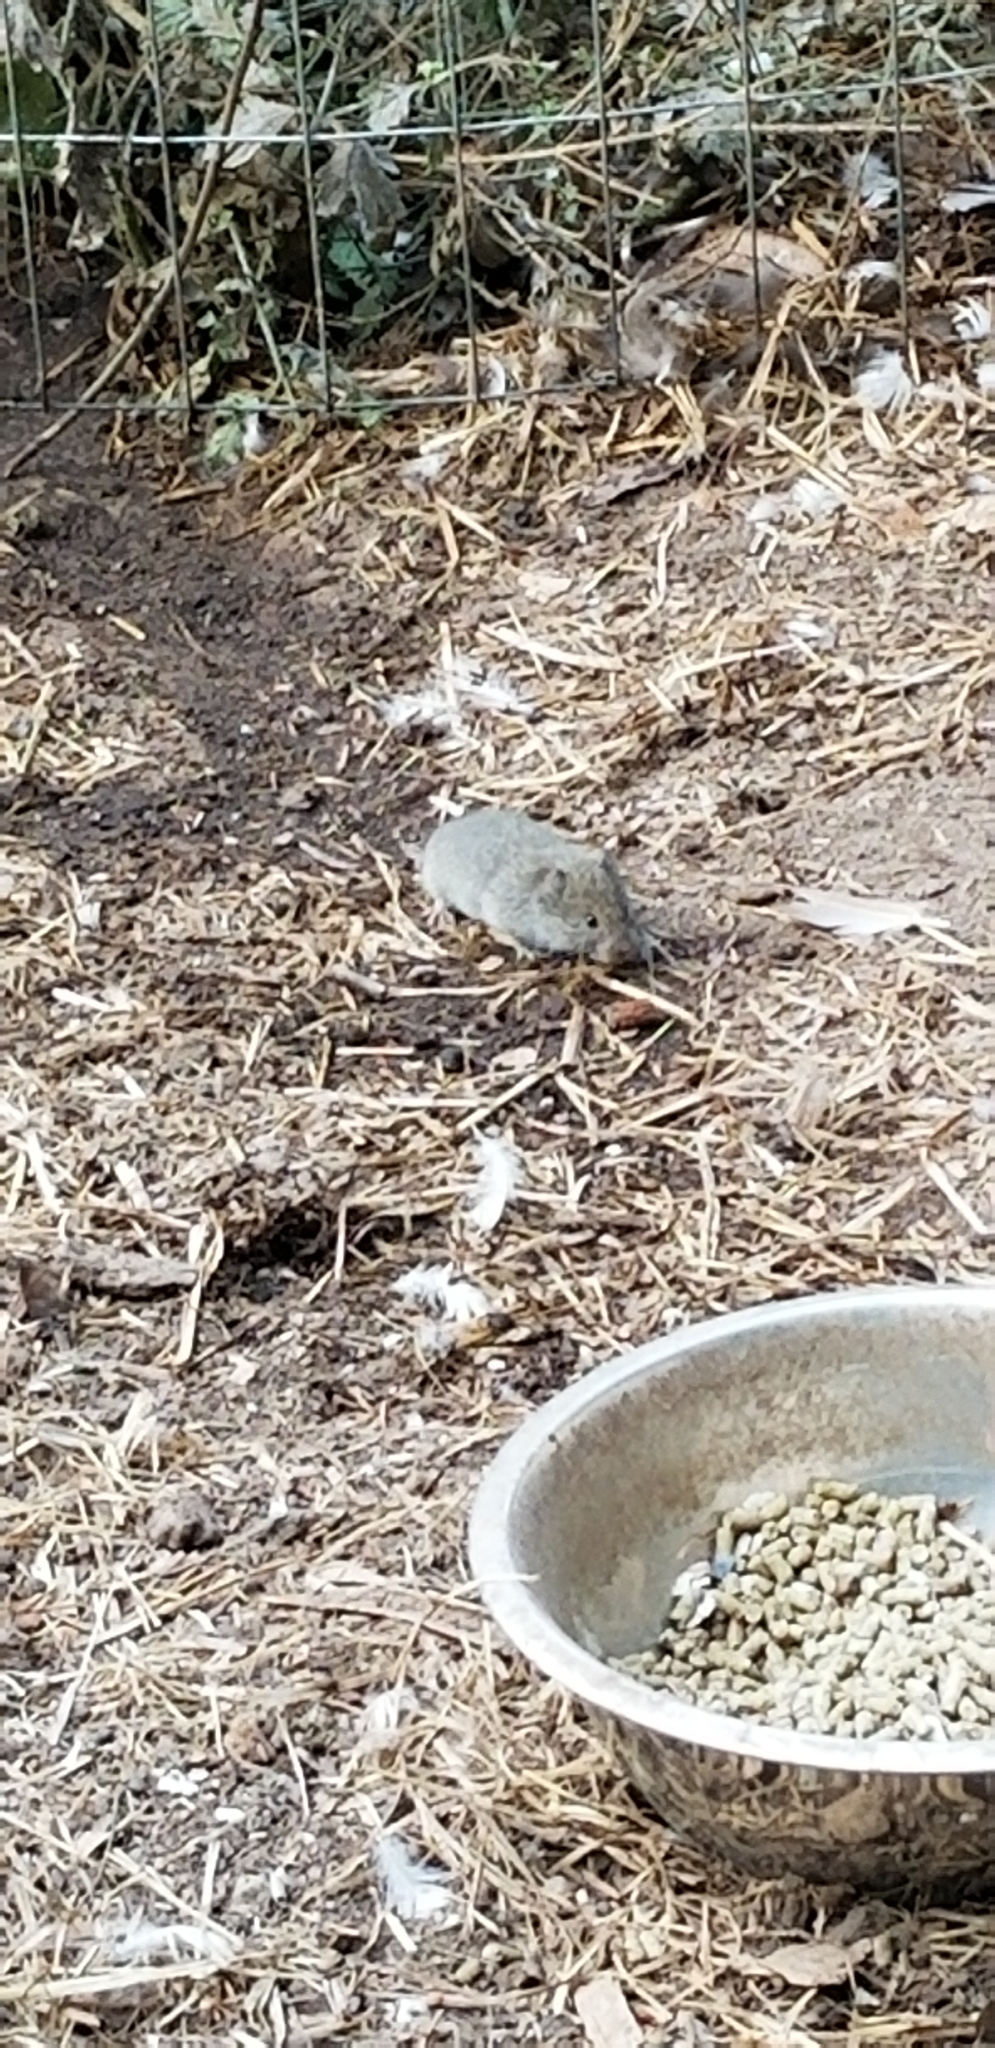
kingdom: Animalia
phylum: Chordata
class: Mammalia
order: Rodentia
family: Cricetidae
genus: Microtus
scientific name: Microtus californicus
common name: California vole
